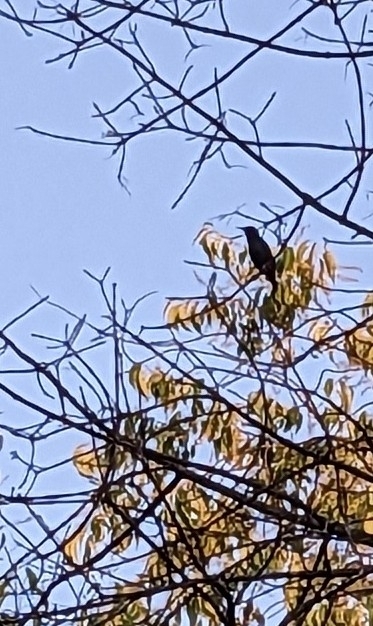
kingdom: Animalia
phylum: Chordata
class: Aves
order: Passeriformes
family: Sturnidae
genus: Sturnus
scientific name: Sturnus vulgaris
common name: Common starling
